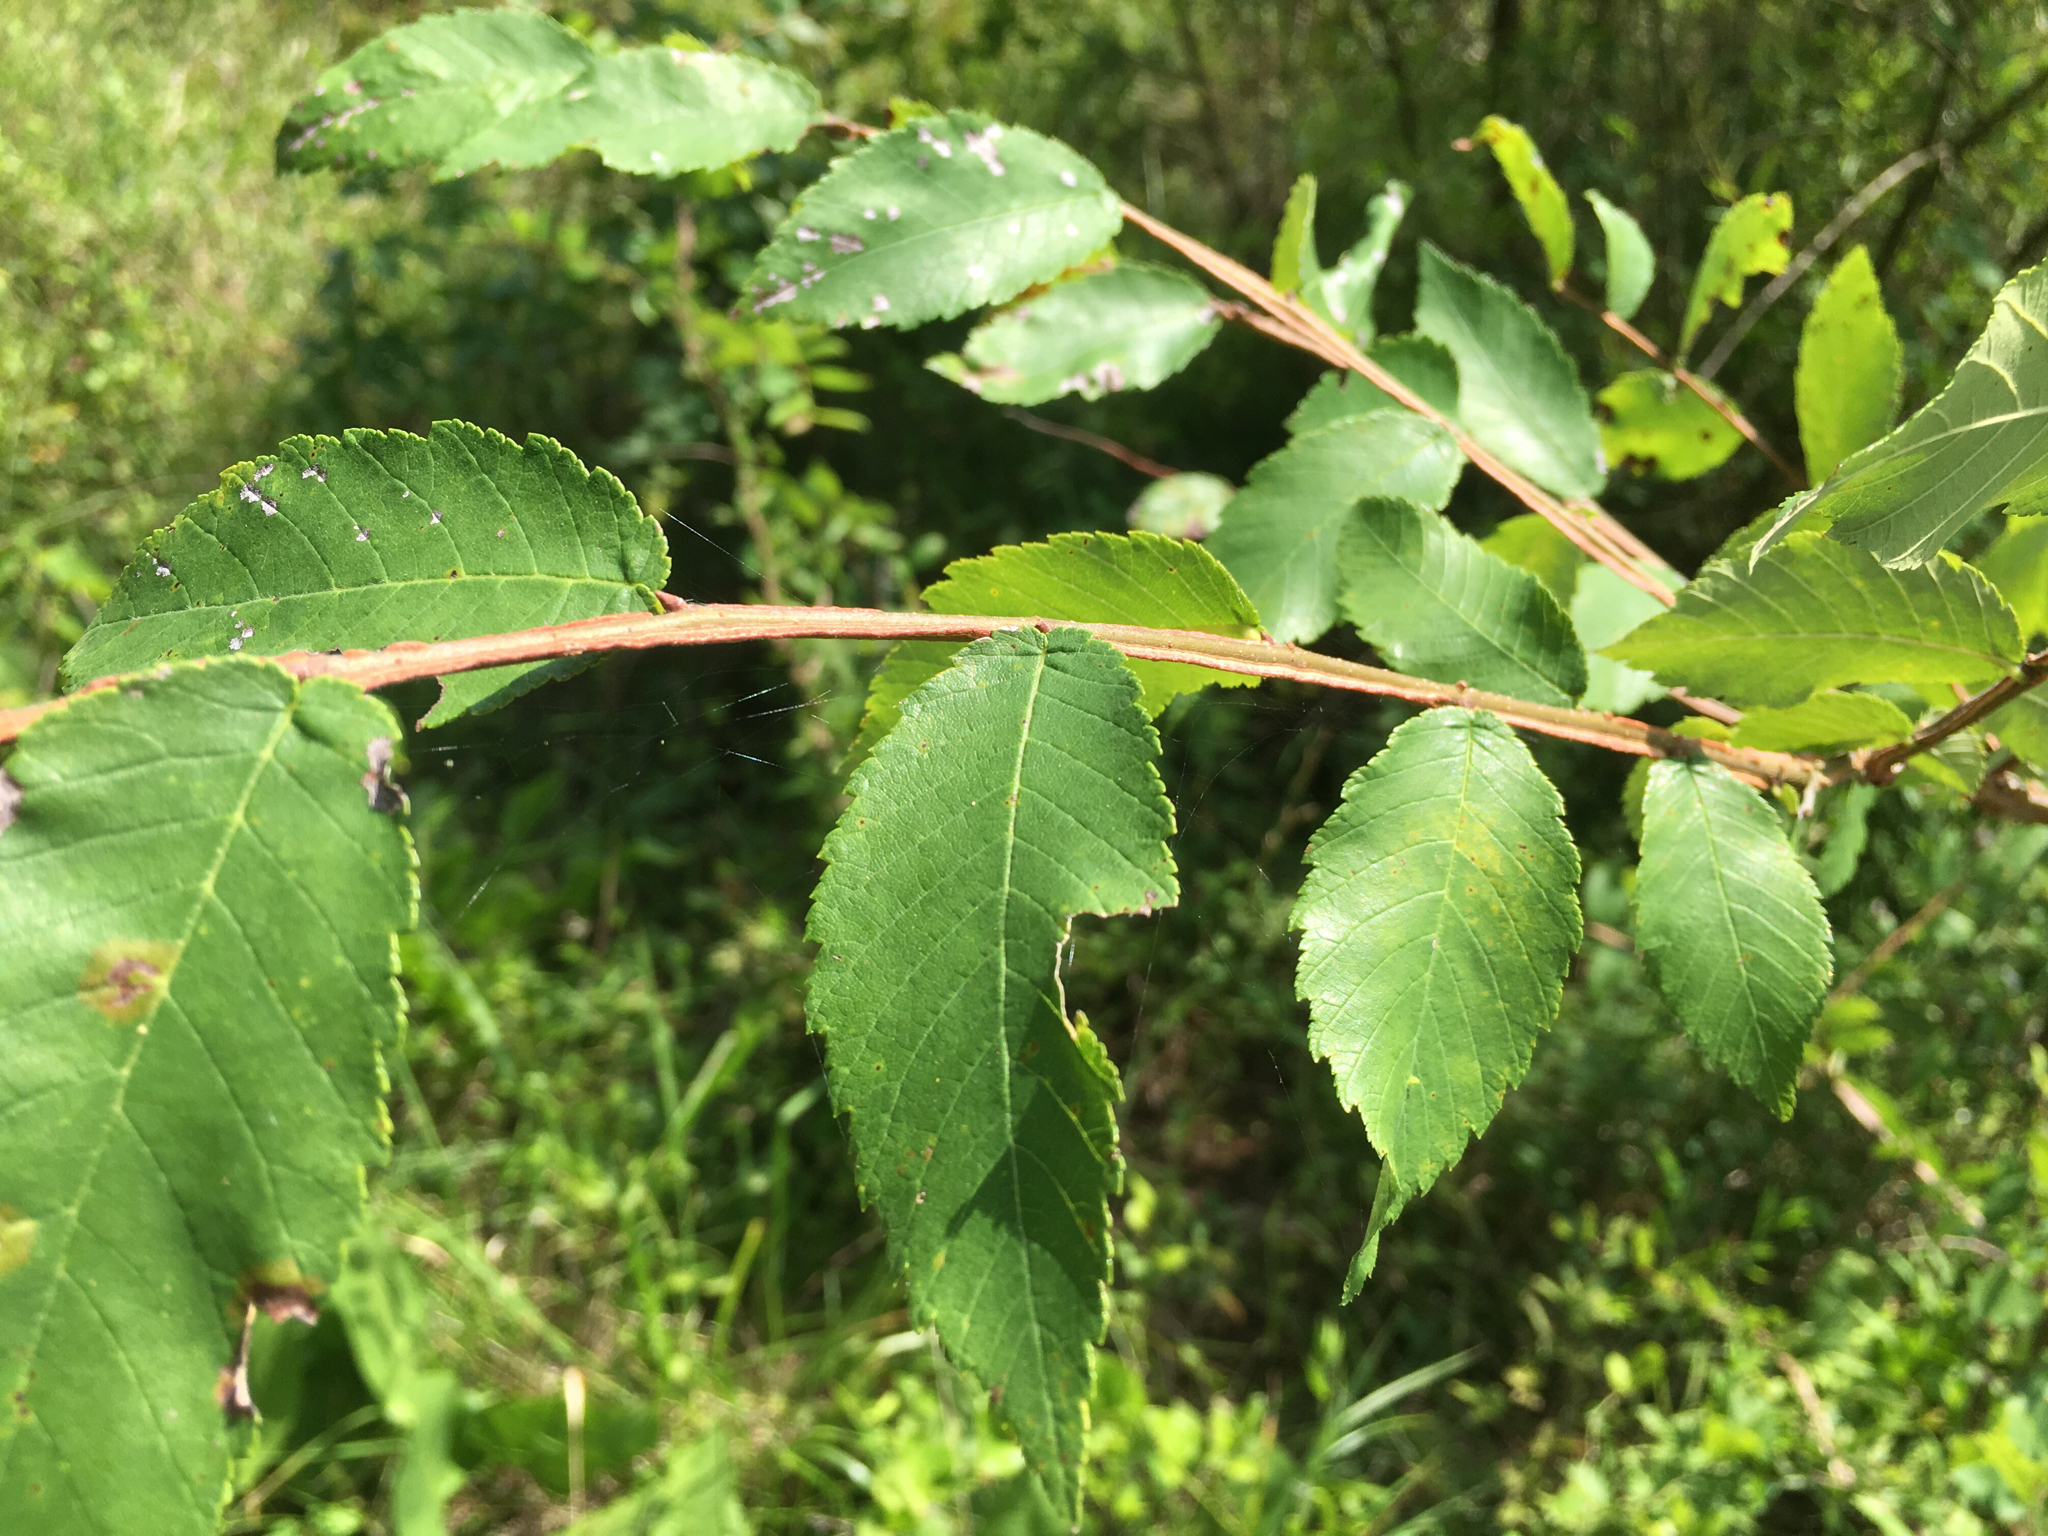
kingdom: Plantae
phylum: Tracheophyta
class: Magnoliopsida
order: Rosales
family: Ulmaceae
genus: Ulmus
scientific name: Ulmus alata
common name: Winged elm
